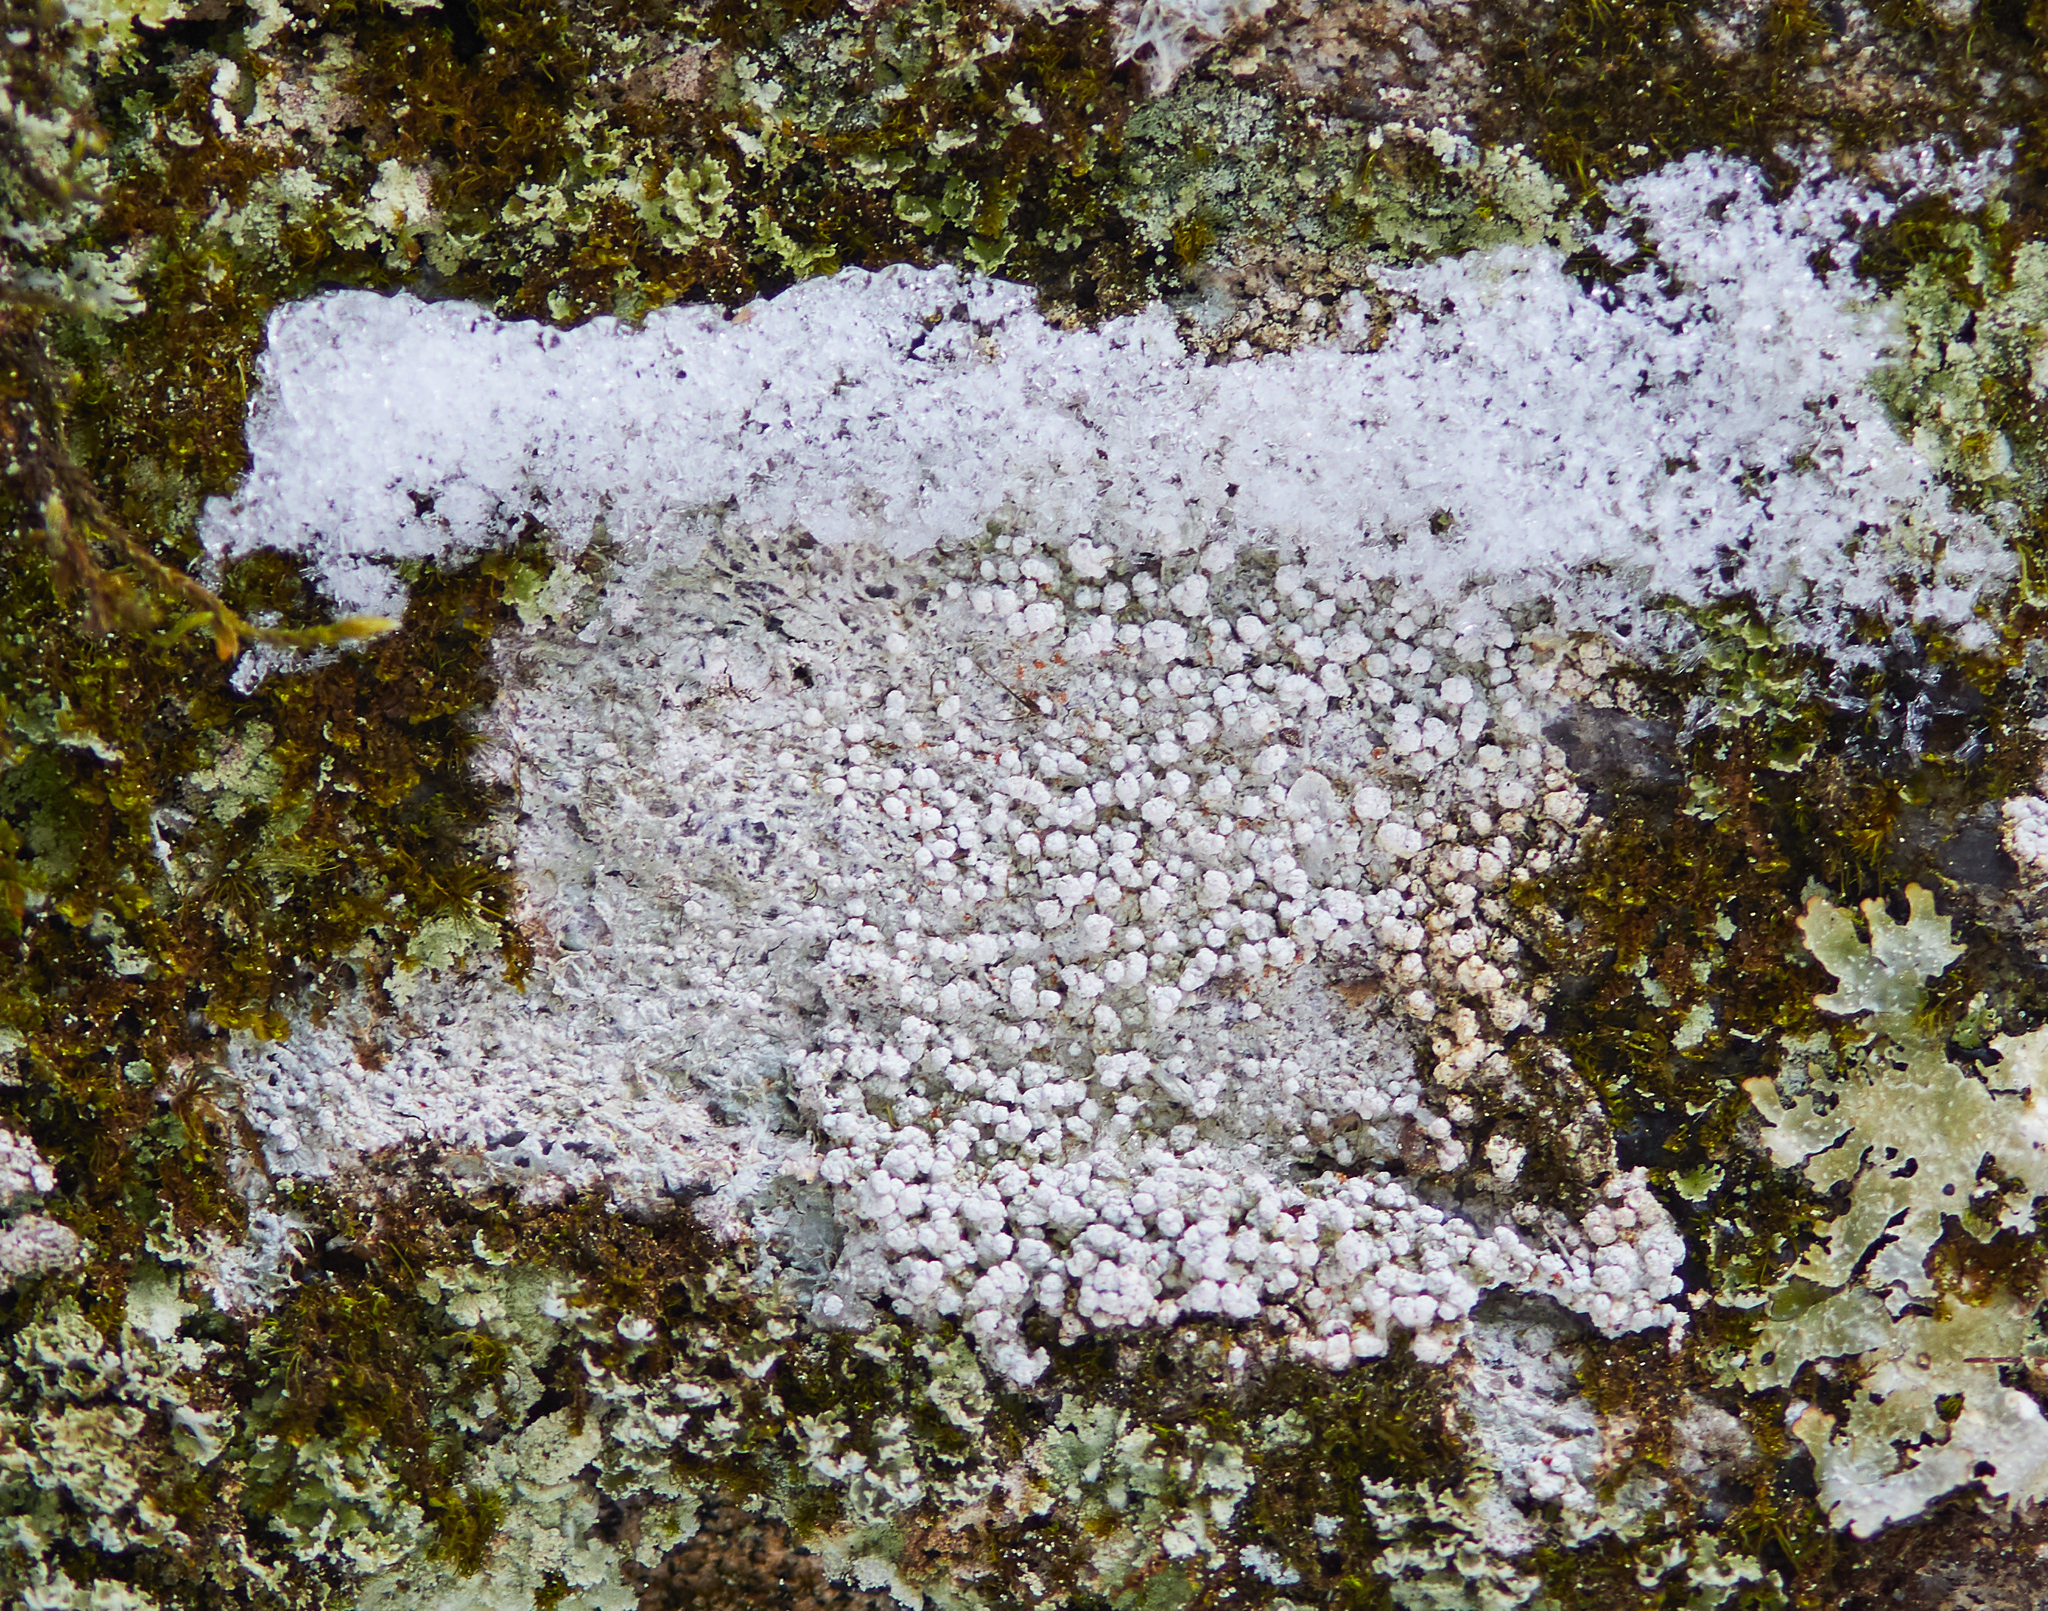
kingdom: Fungi
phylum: Ascomycota
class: Lecanoromycetes
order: Pertusariales
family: Pertusariaceae
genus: Lepra
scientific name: Lepra amara
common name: Bitter wart lichen
